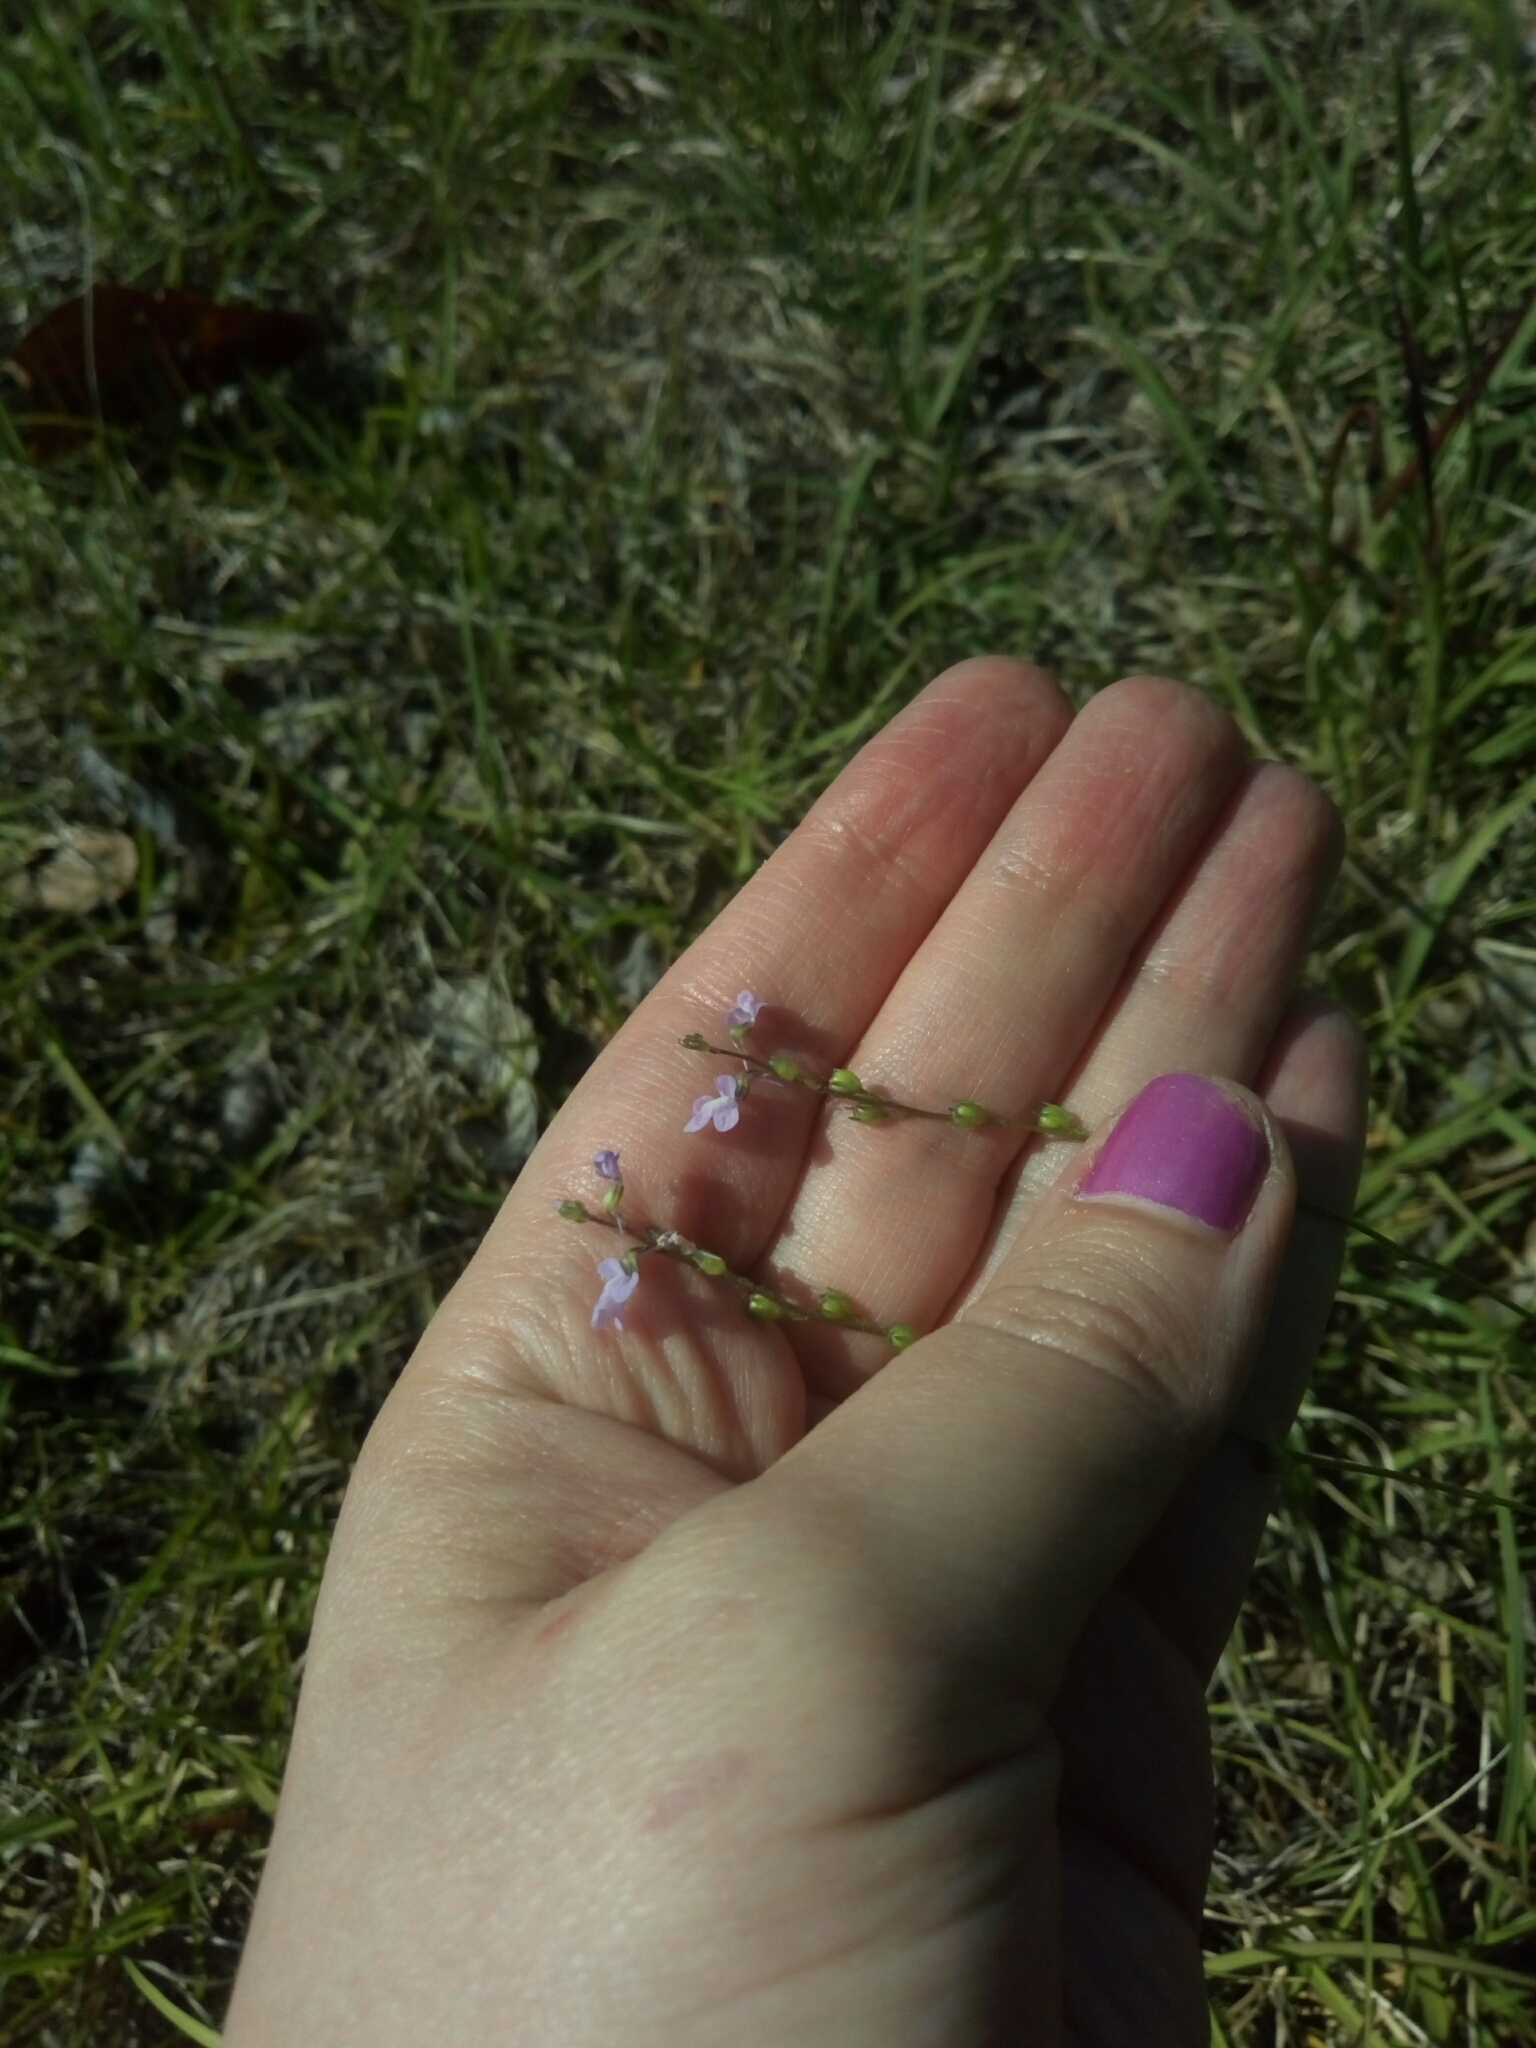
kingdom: Plantae
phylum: Tracheophyta
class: Magnoliopsida
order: Lamiales
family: Plantaginaceae
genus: Nuttallanthus
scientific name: Nuttallanthus canadensis
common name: Blue toadflax
